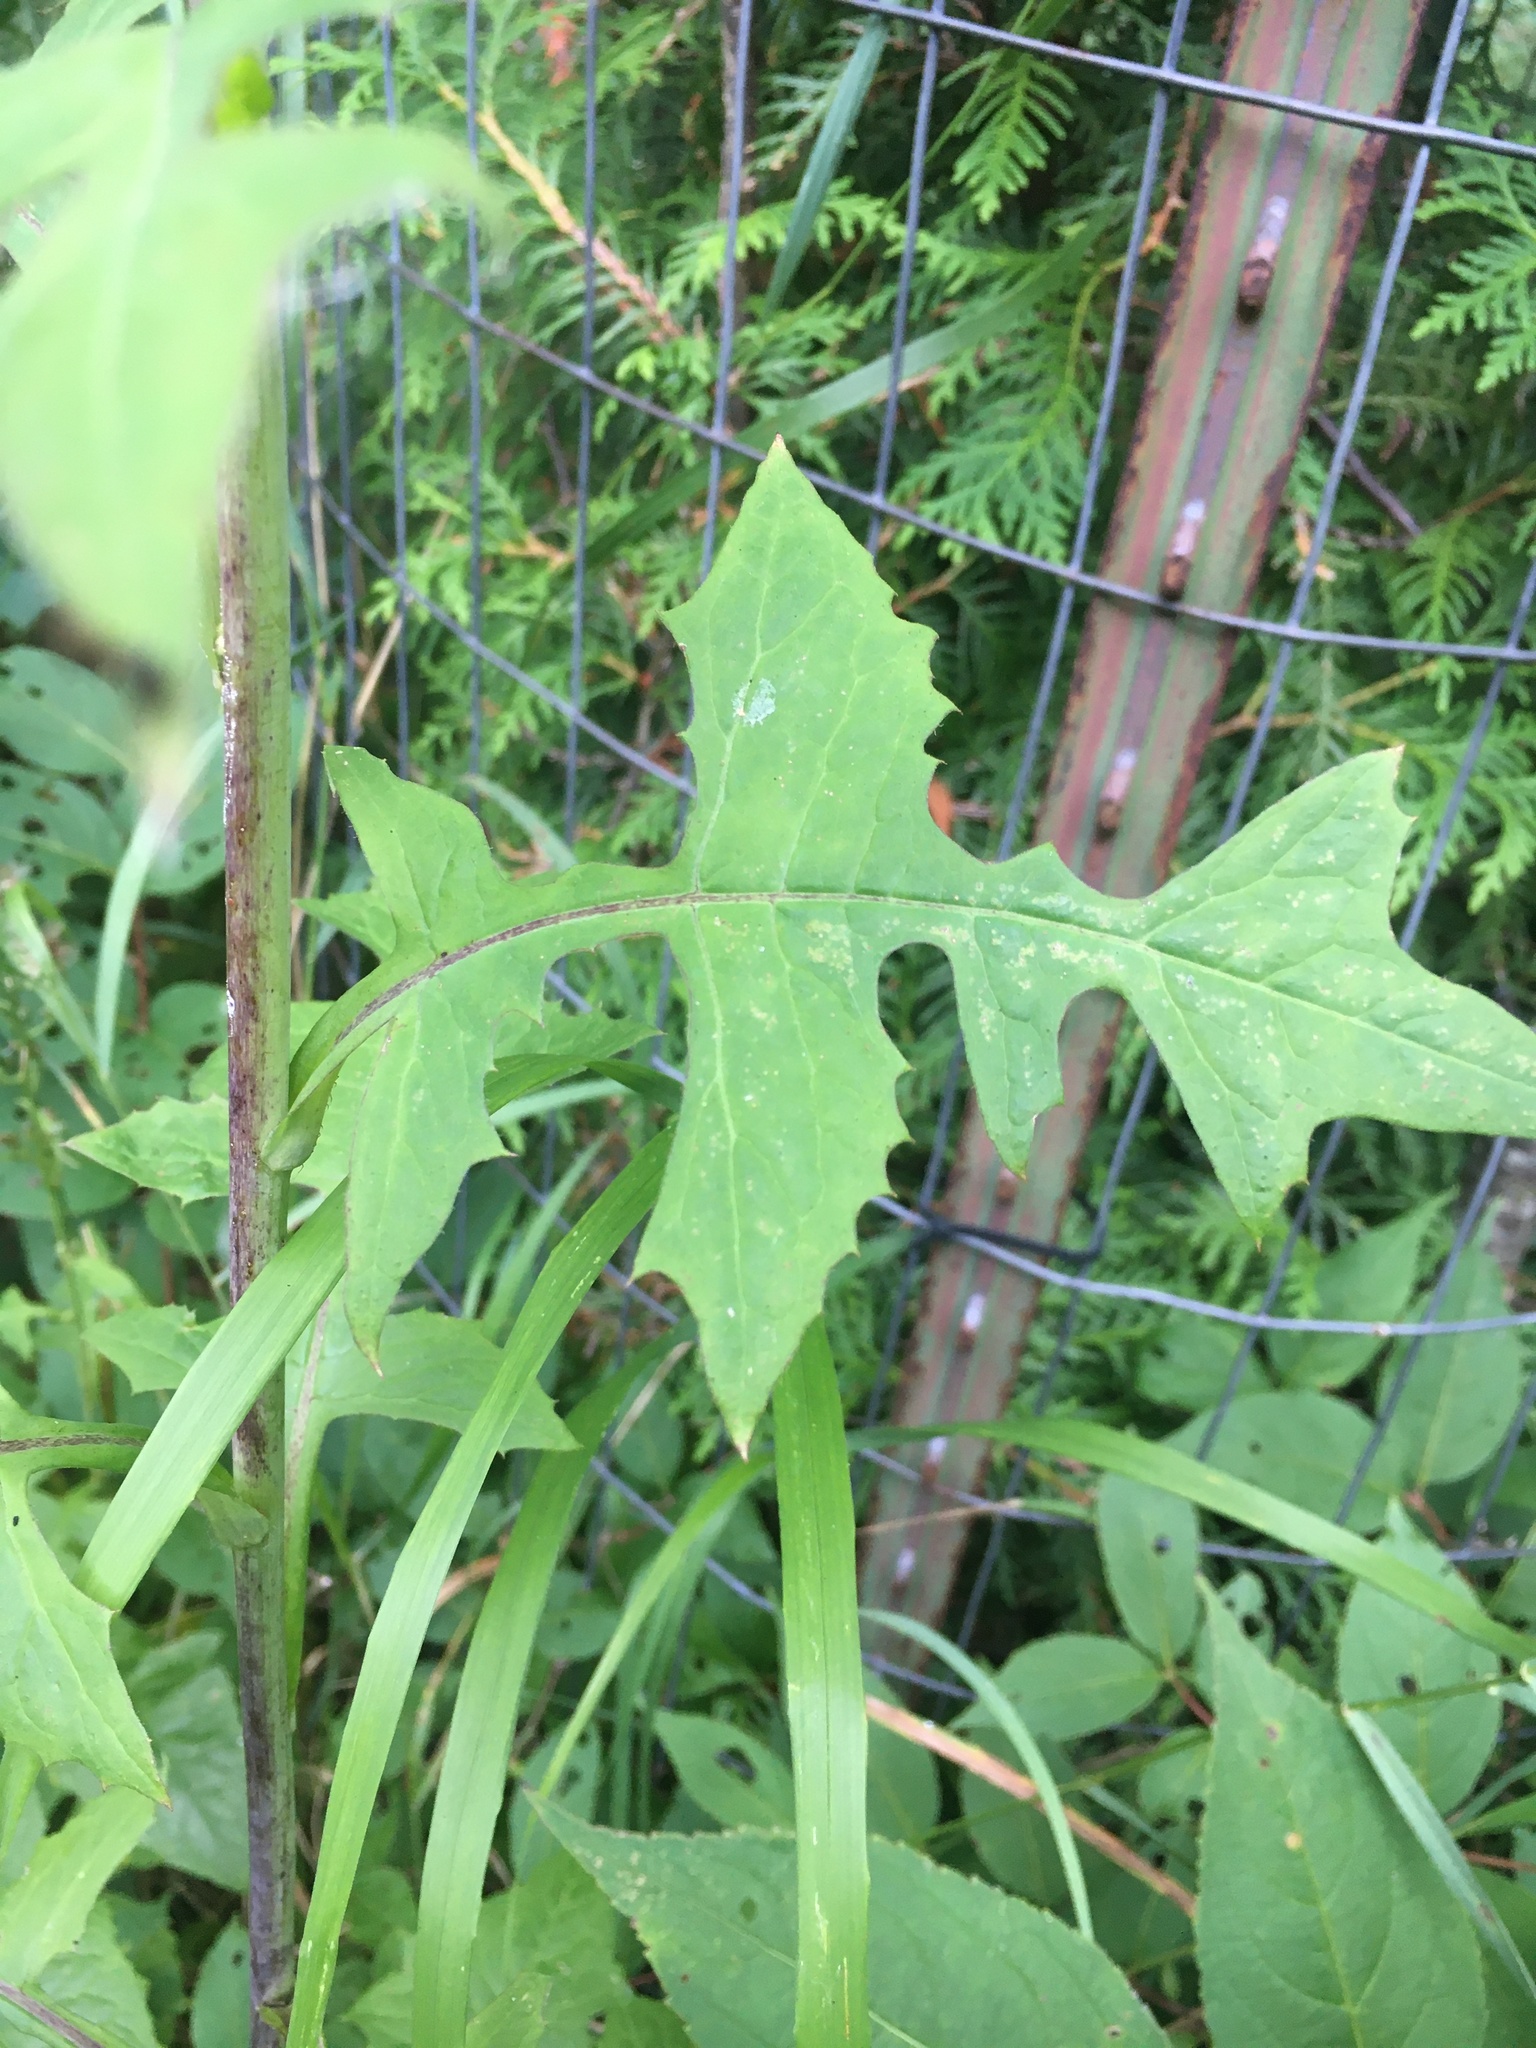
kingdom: Plantae
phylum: Tracheophyta
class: Magnoliopsida
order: Asterales
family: Asteraceae
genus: Lactuca
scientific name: Lactuca biennis
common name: Blue wood lettuce
